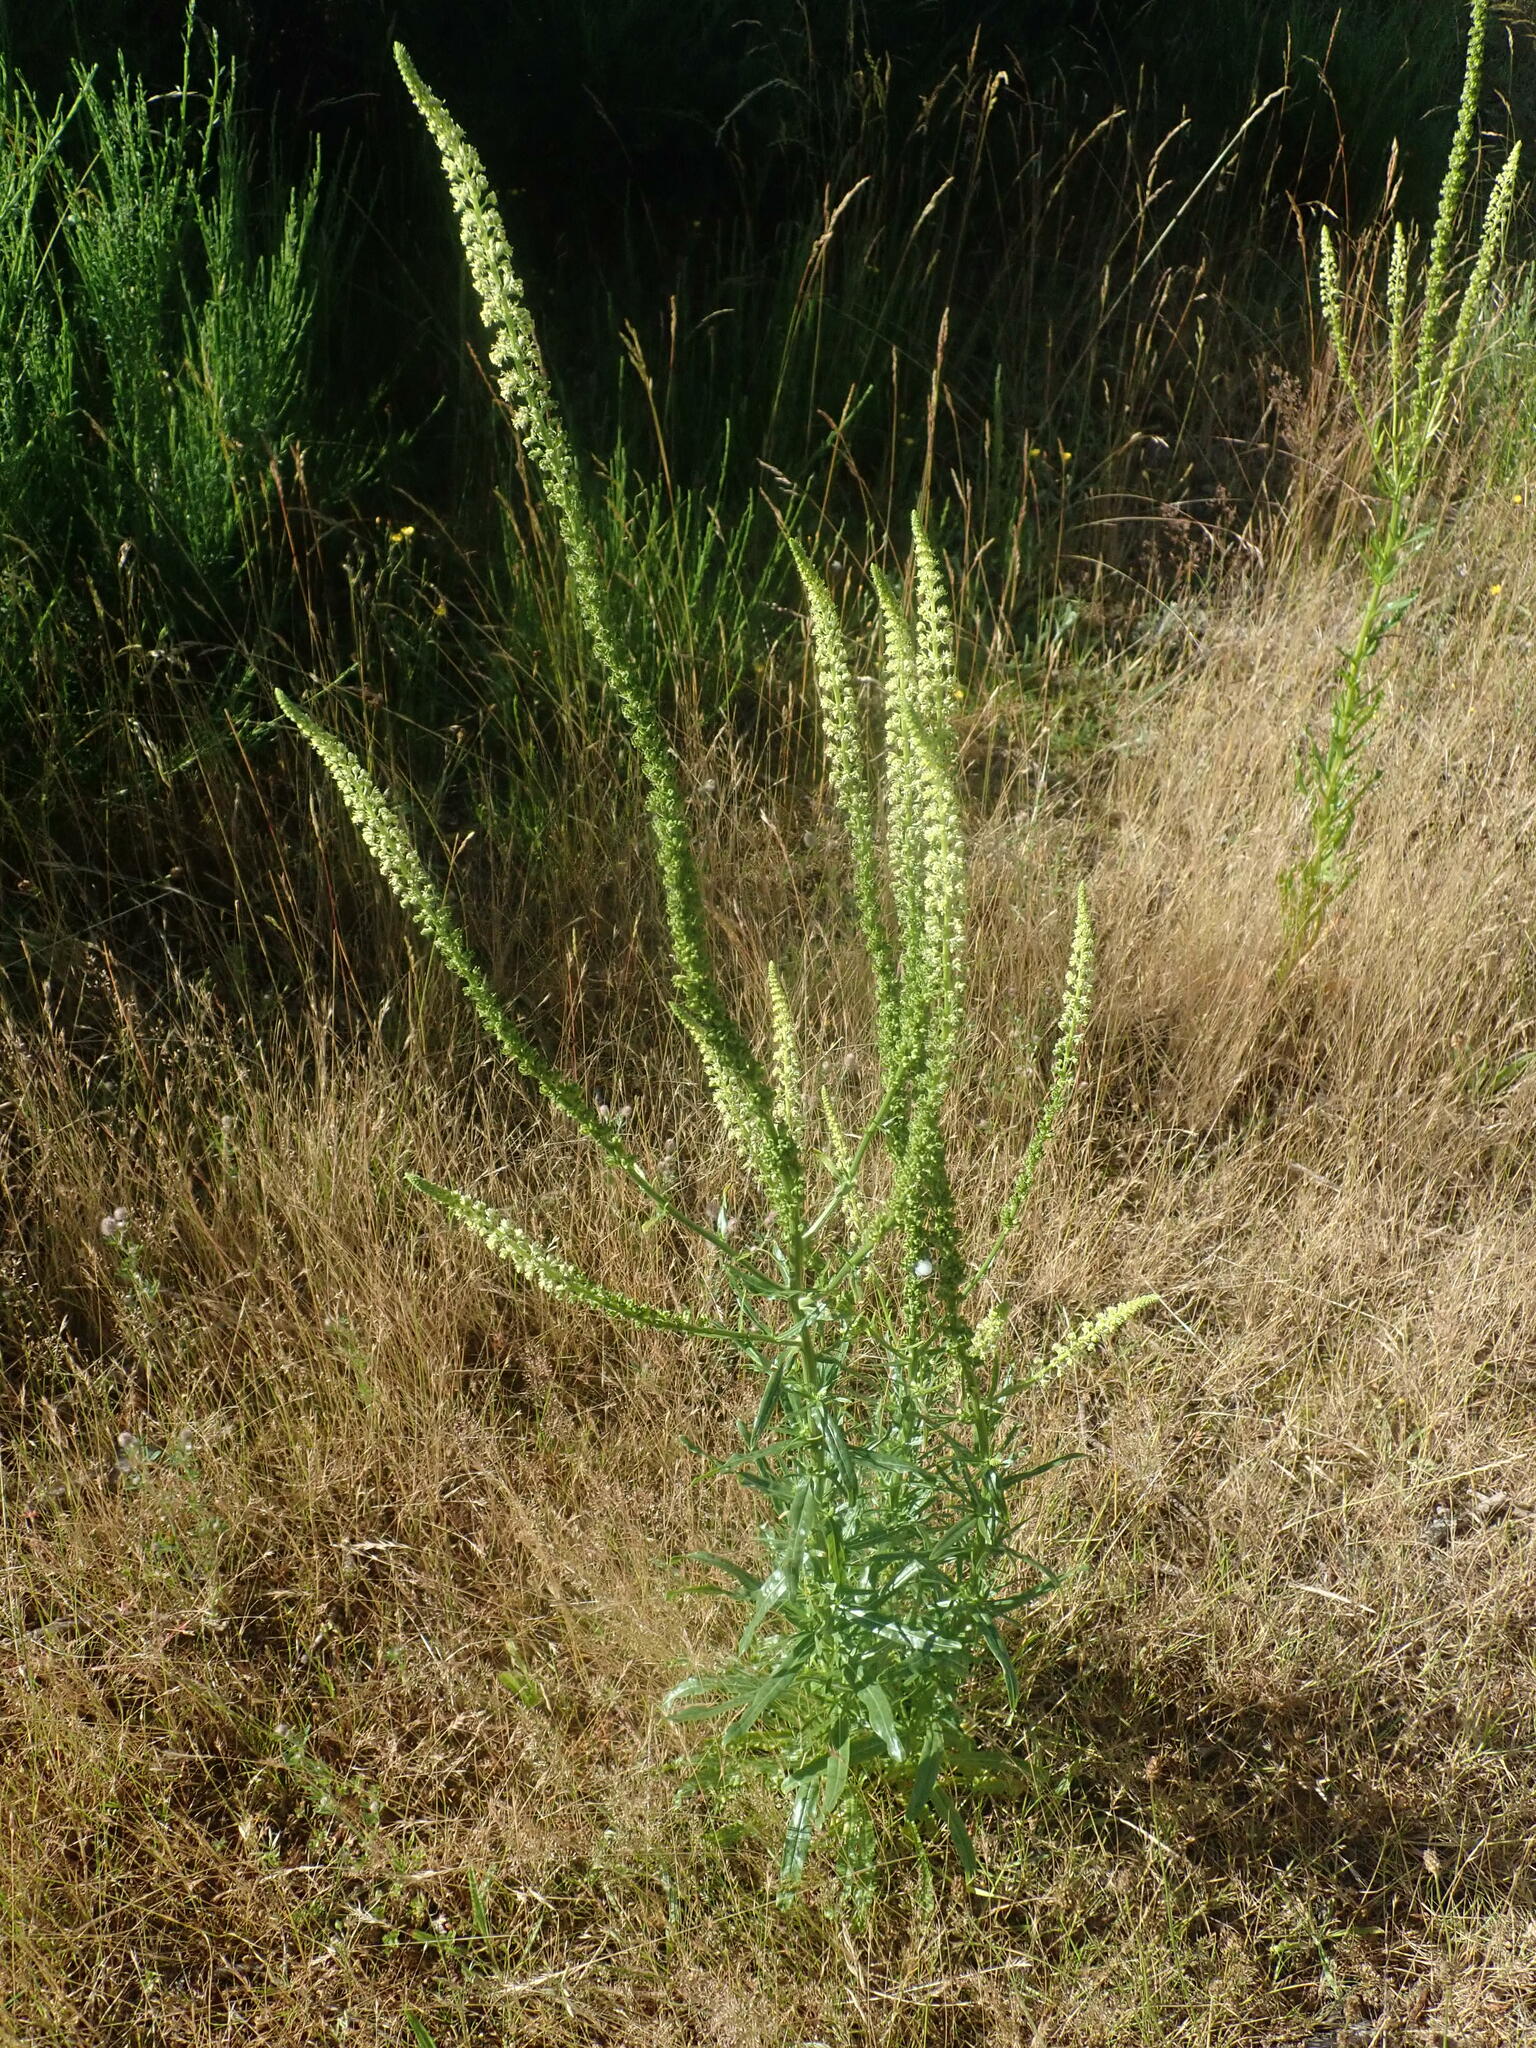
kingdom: Plantae
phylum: Tracheophyta
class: Magnoliopsida
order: Brassicales
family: Resedaceae
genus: Reseda
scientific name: Reseda luteola
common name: Weld
